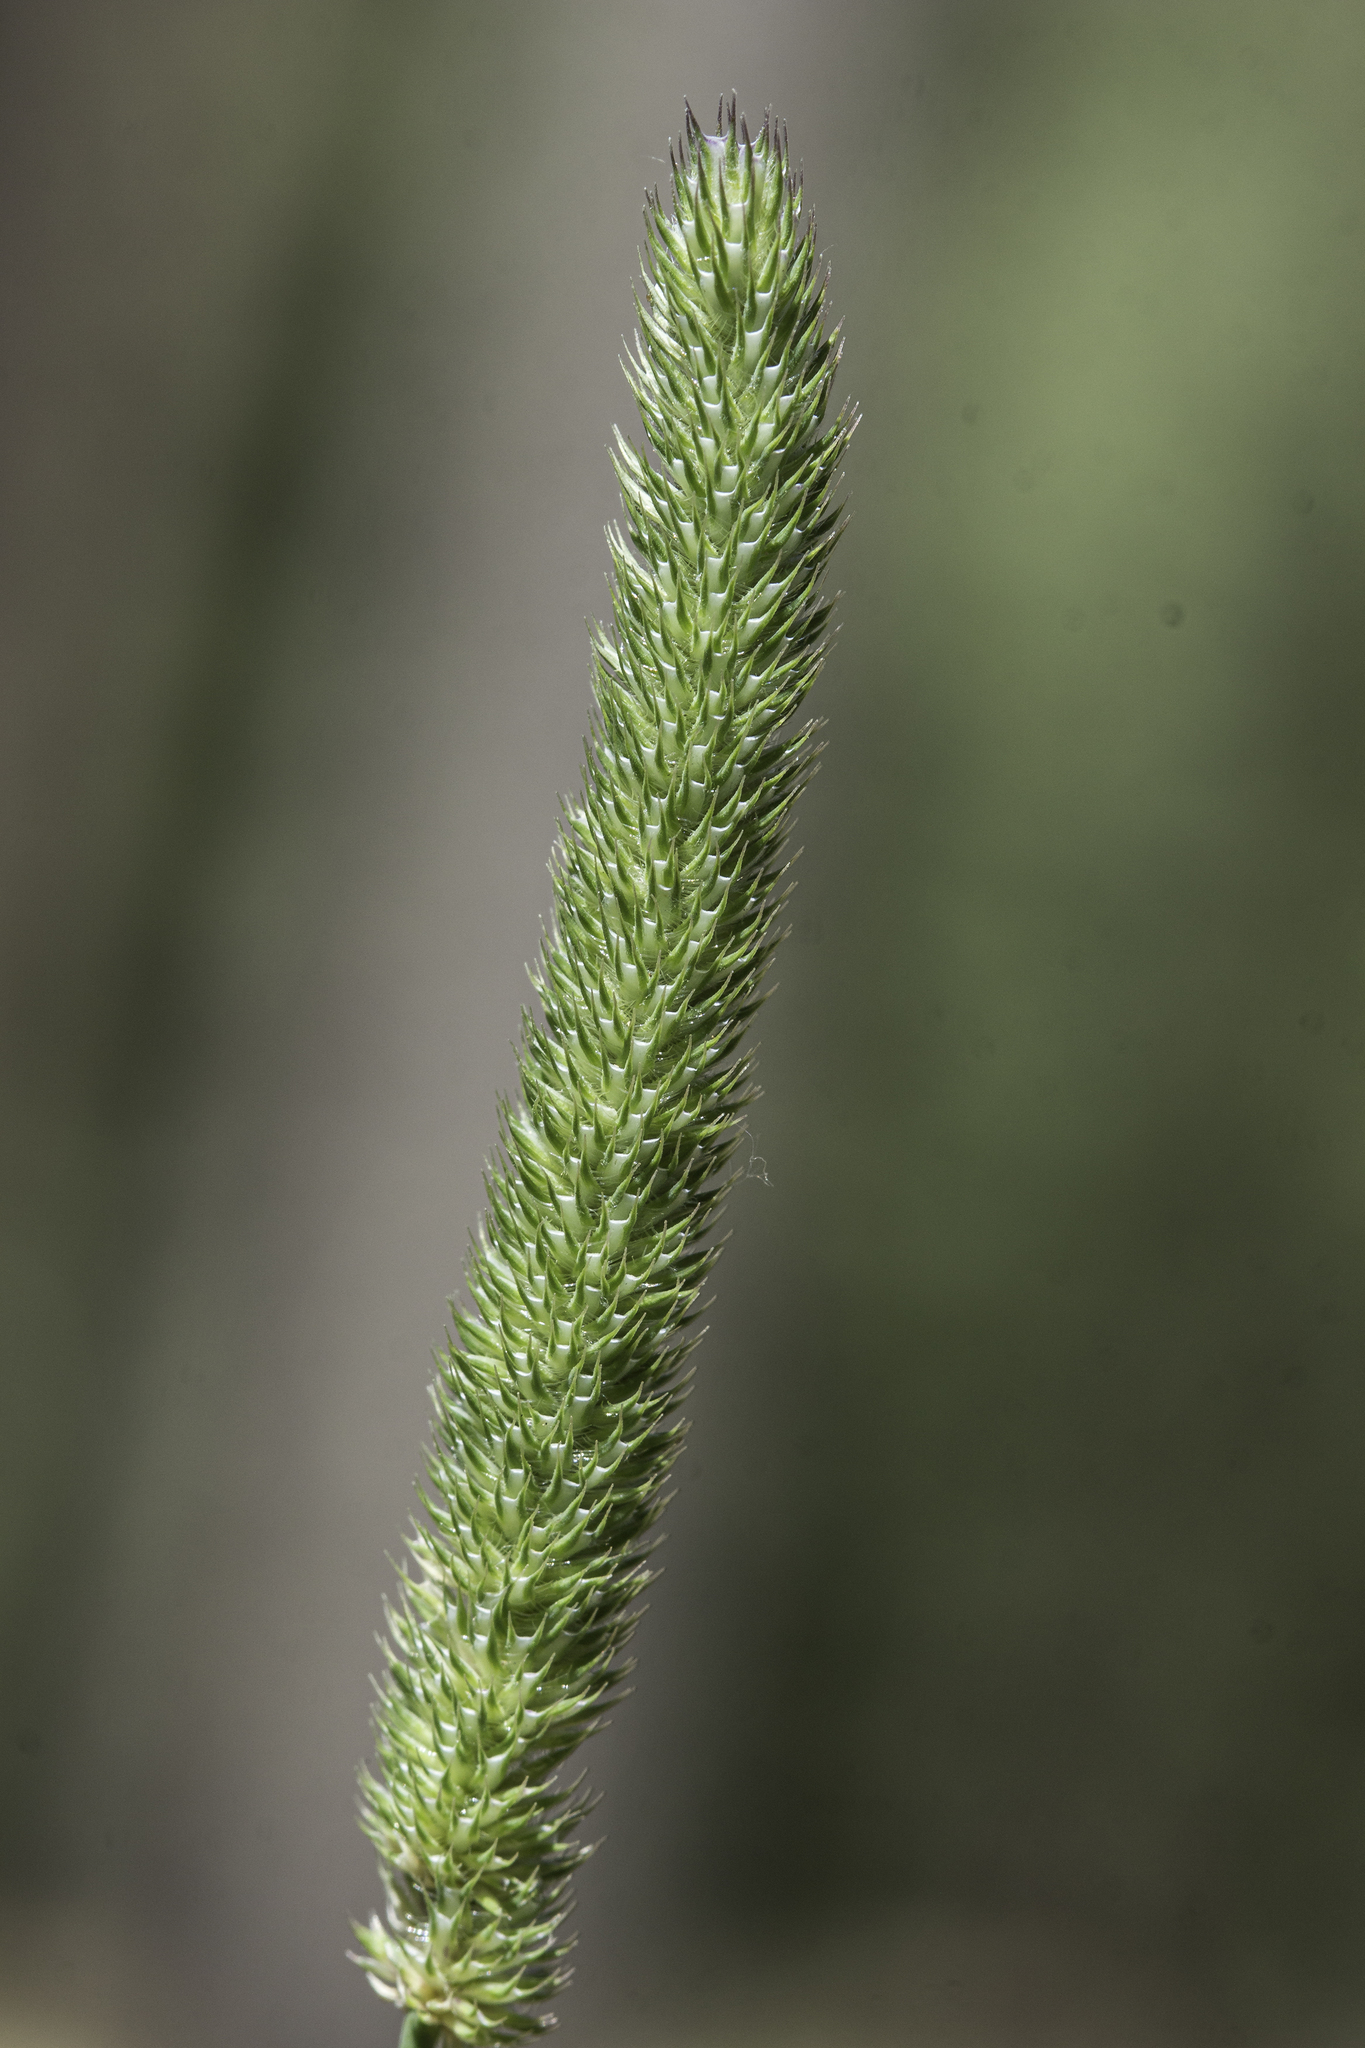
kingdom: Plantae
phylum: Tracheophyta
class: Liliopsida
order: Poales
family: Poaceae
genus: Phleum
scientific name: Phleum pratense
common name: Timothy grass
